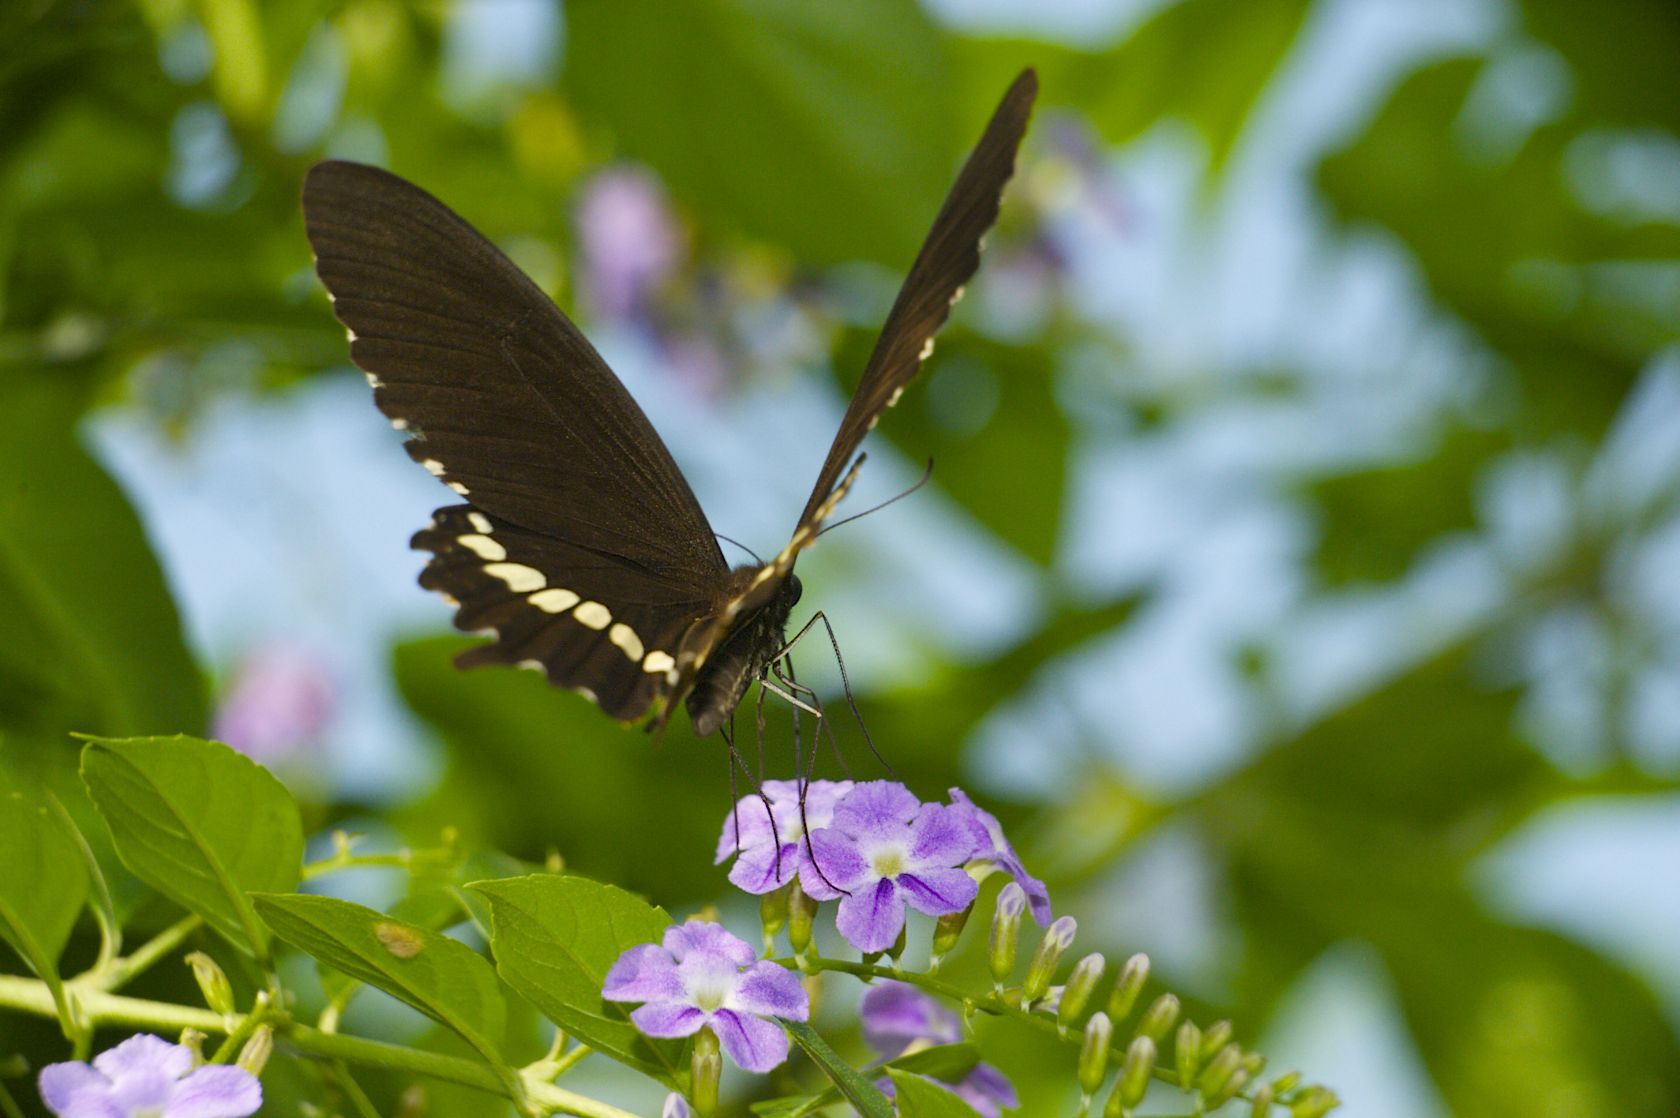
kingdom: Animalia
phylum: Arthropoda
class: Insecta
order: Lepidoptera
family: Papilionidae
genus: Papilio
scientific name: Papilio polytes
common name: Common mormon
